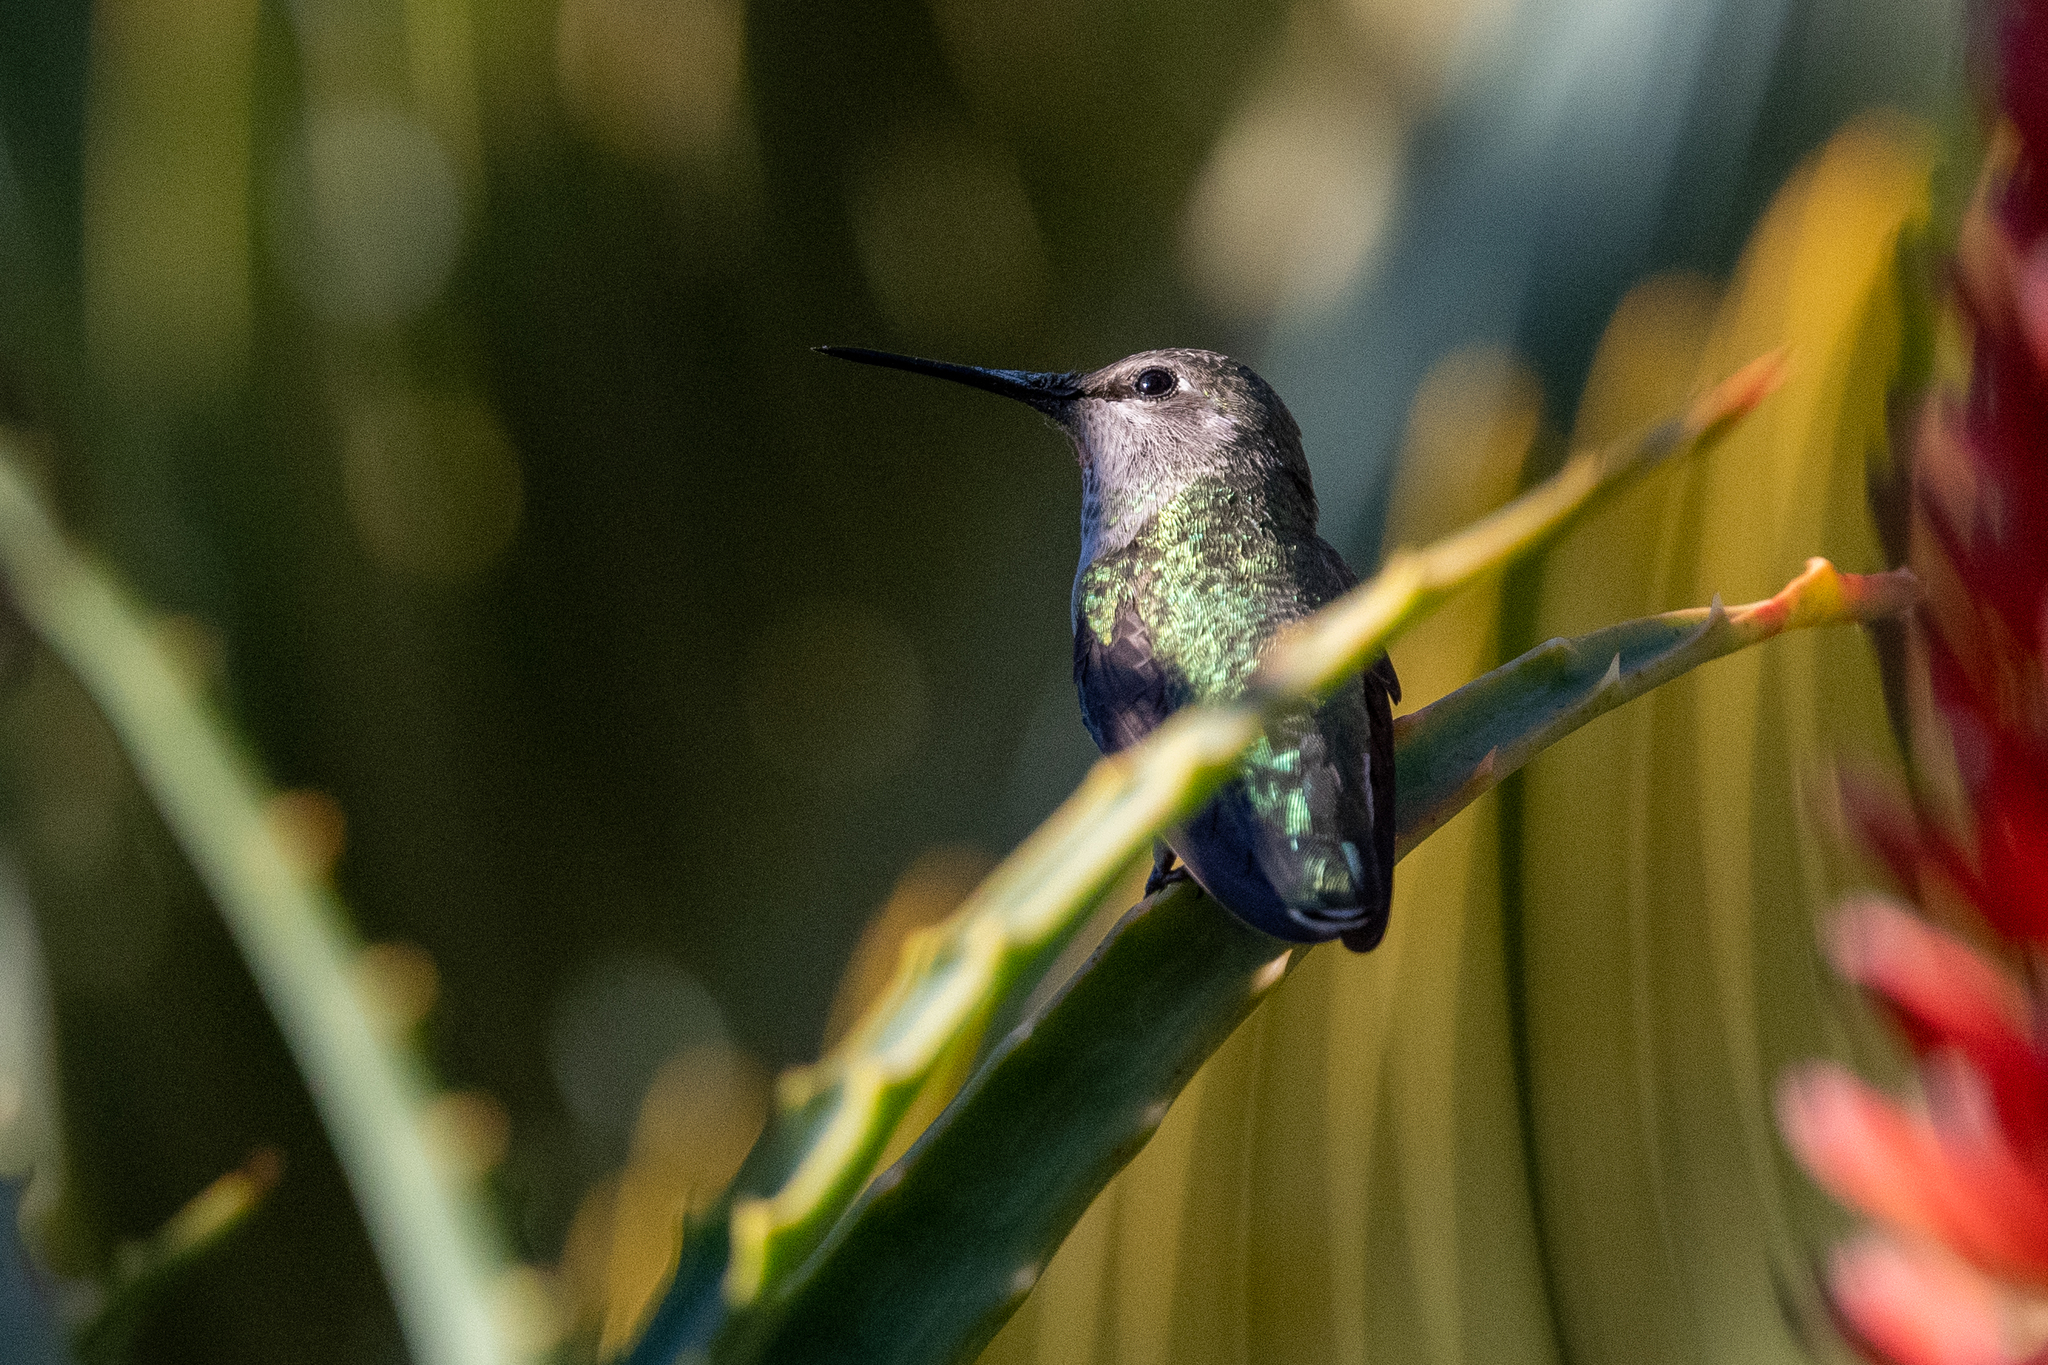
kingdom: Animalia
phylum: Chordata
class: Aves
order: Apodiformes
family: Trochilidae
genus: Calypte
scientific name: Calypte anna
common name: Anna's hummingbird
